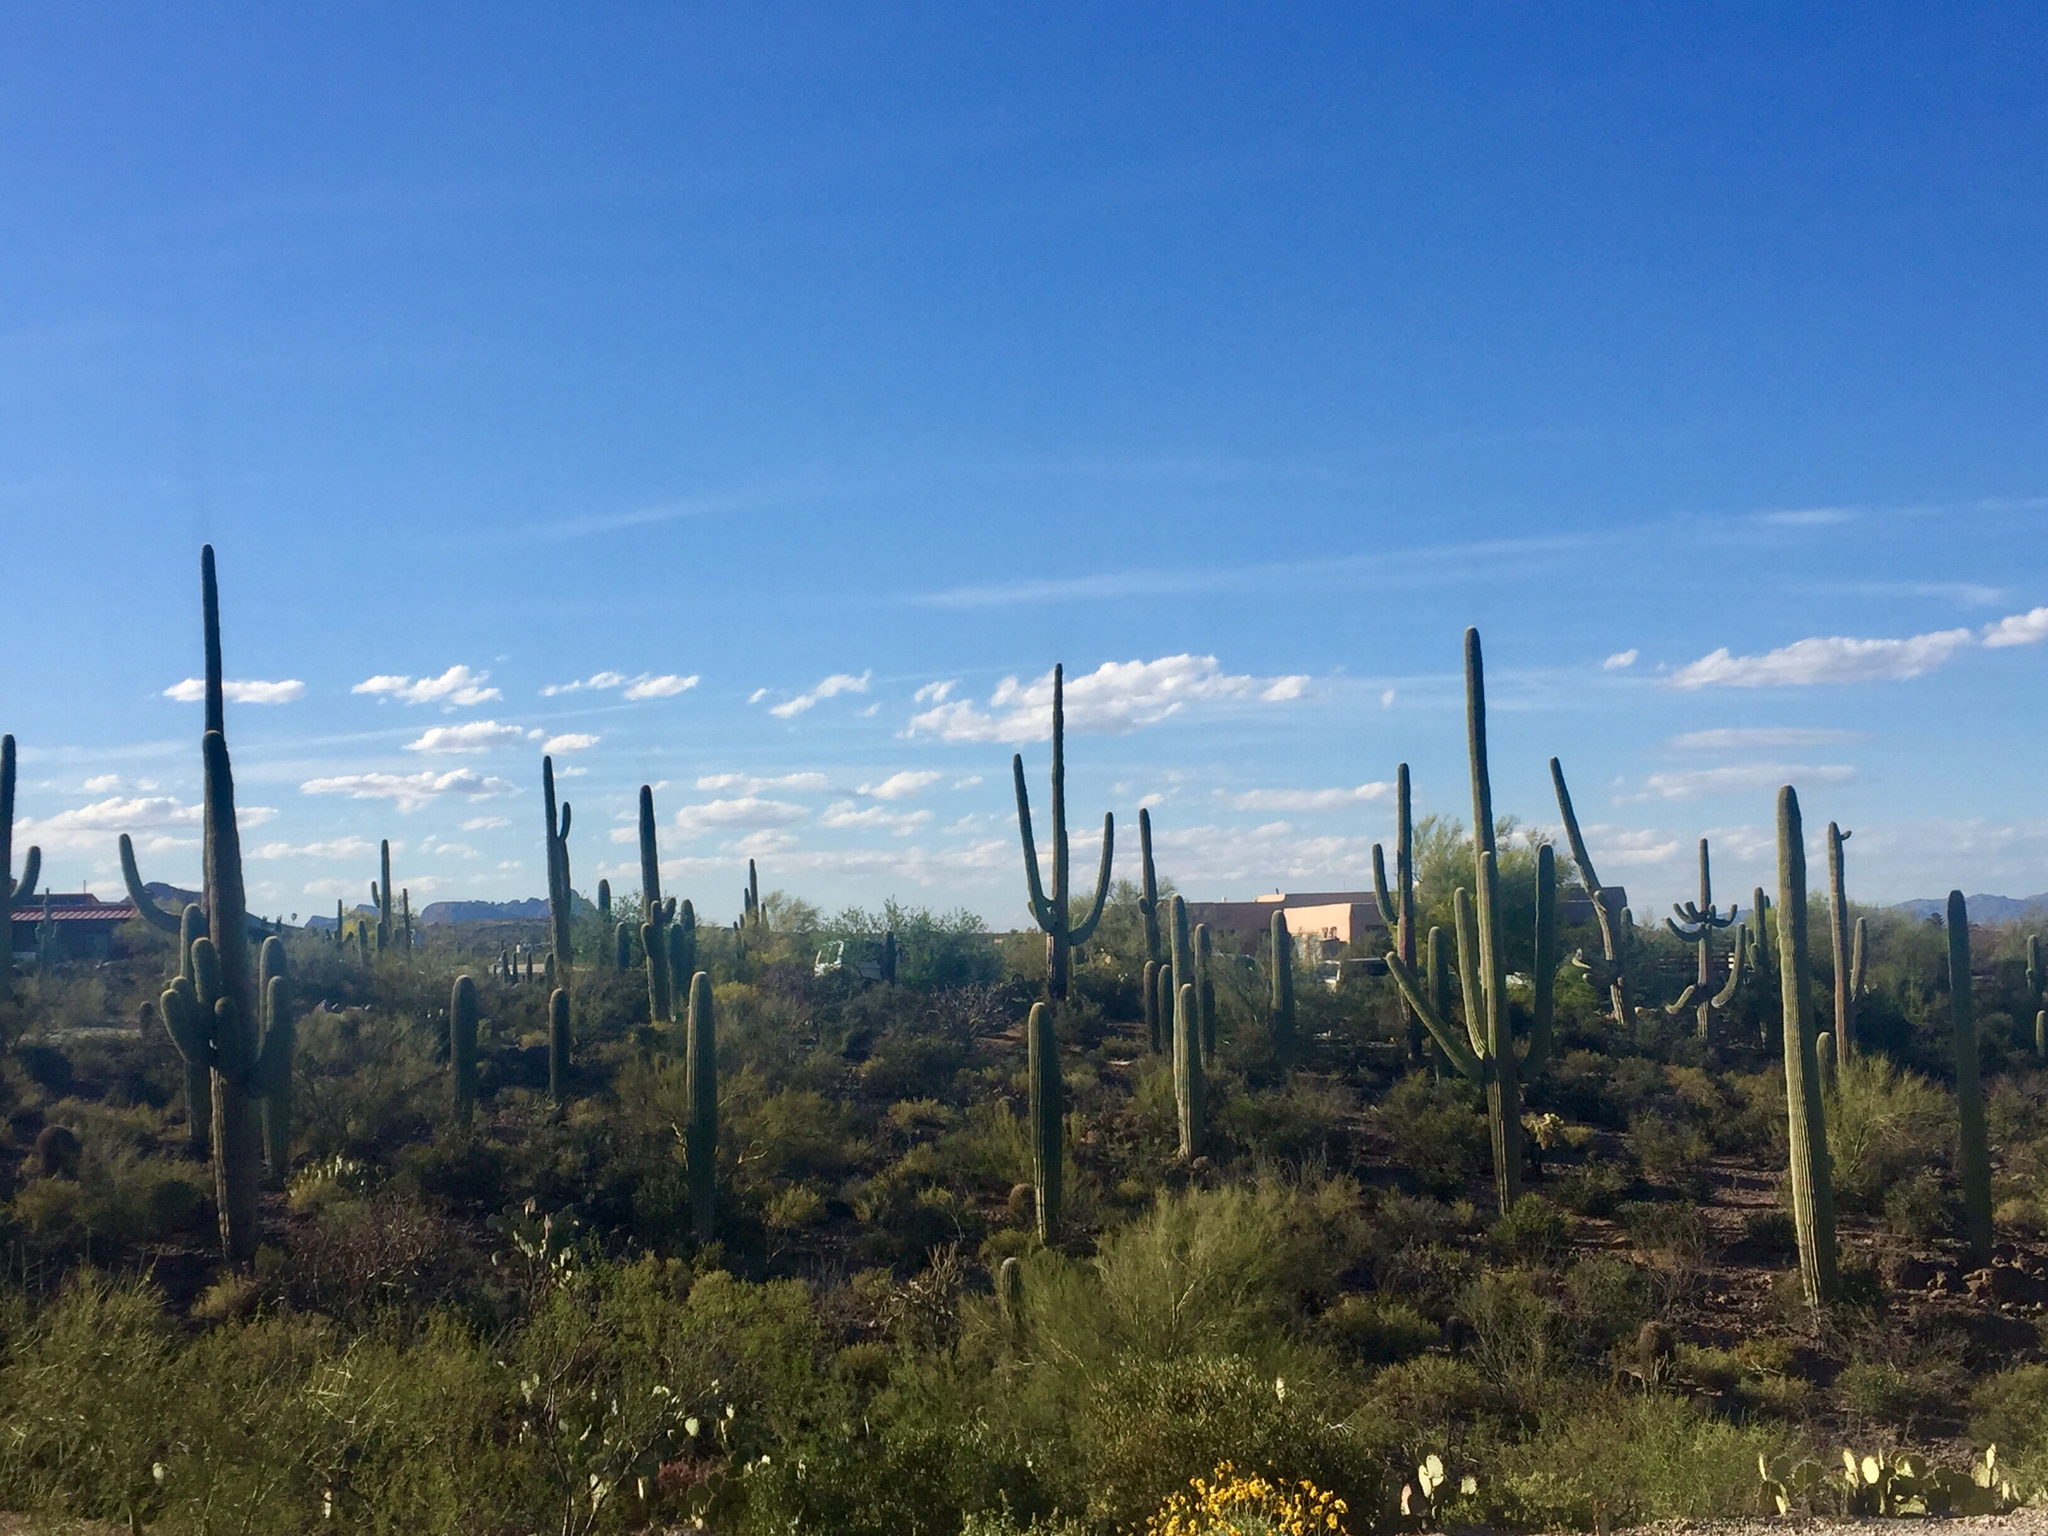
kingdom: Plantae
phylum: Tracheophyta
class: Magnoliopsida
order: Caryophyllales
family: Cactaceae
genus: Carnegiea
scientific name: Carnegiea gigantea
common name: Saguaro
